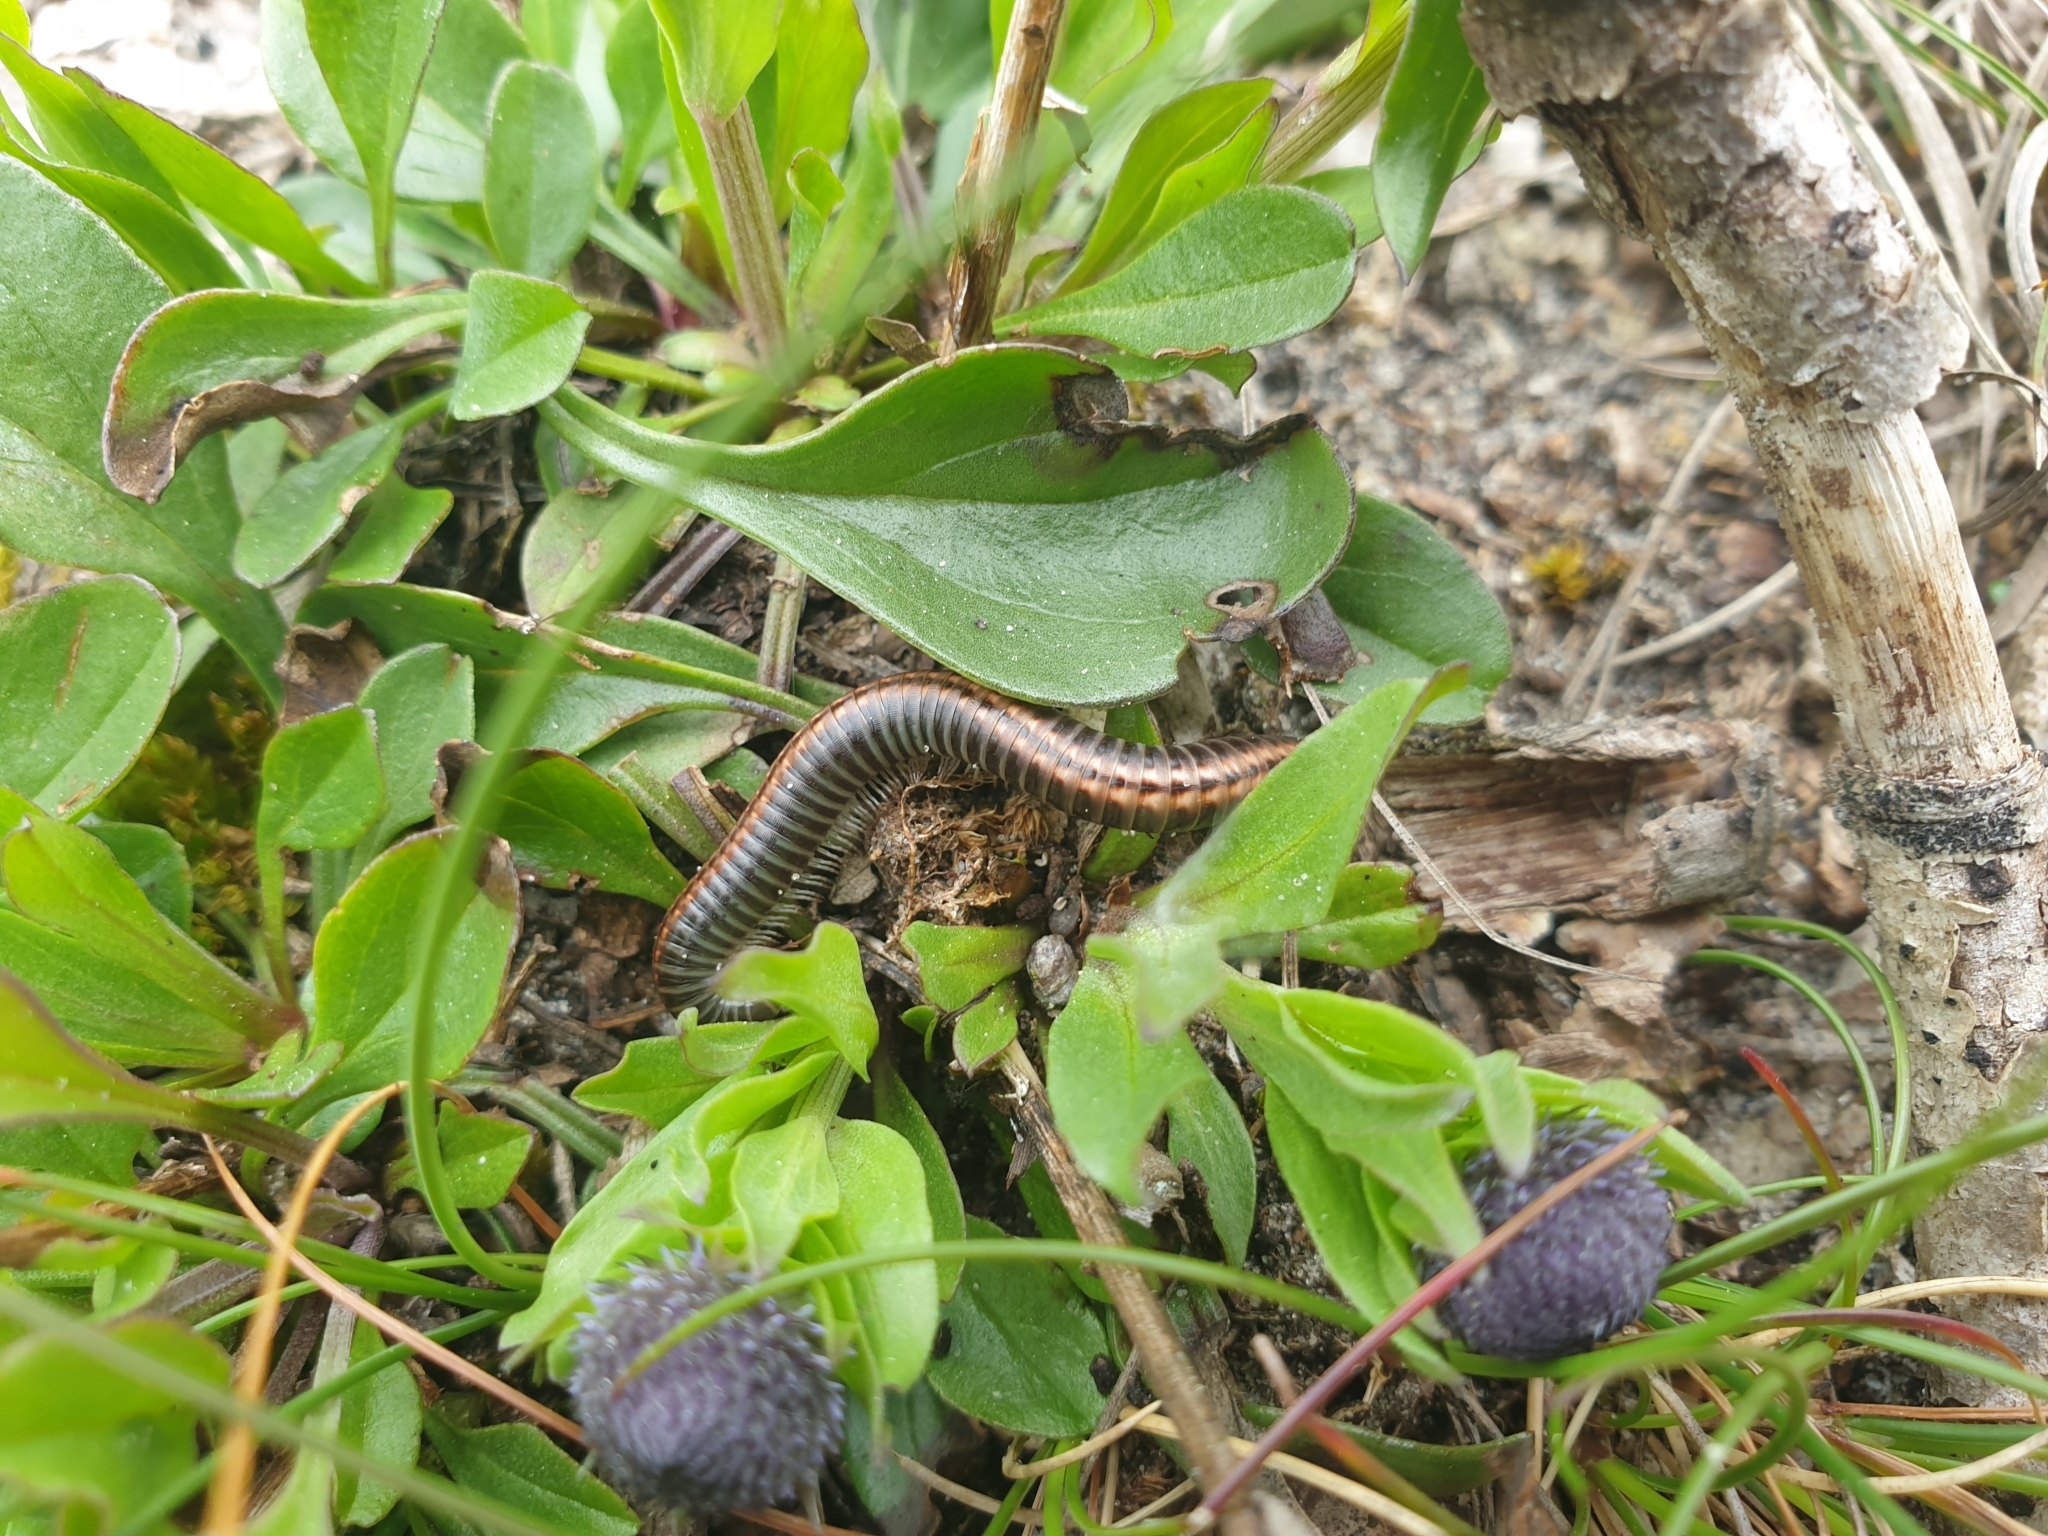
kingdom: Animalia
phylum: Arthropoda
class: Diplopoda
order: Julida
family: Julidae
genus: Ommatoiulus
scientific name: Ommatoiulus sabulosus
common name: Striped millipede
